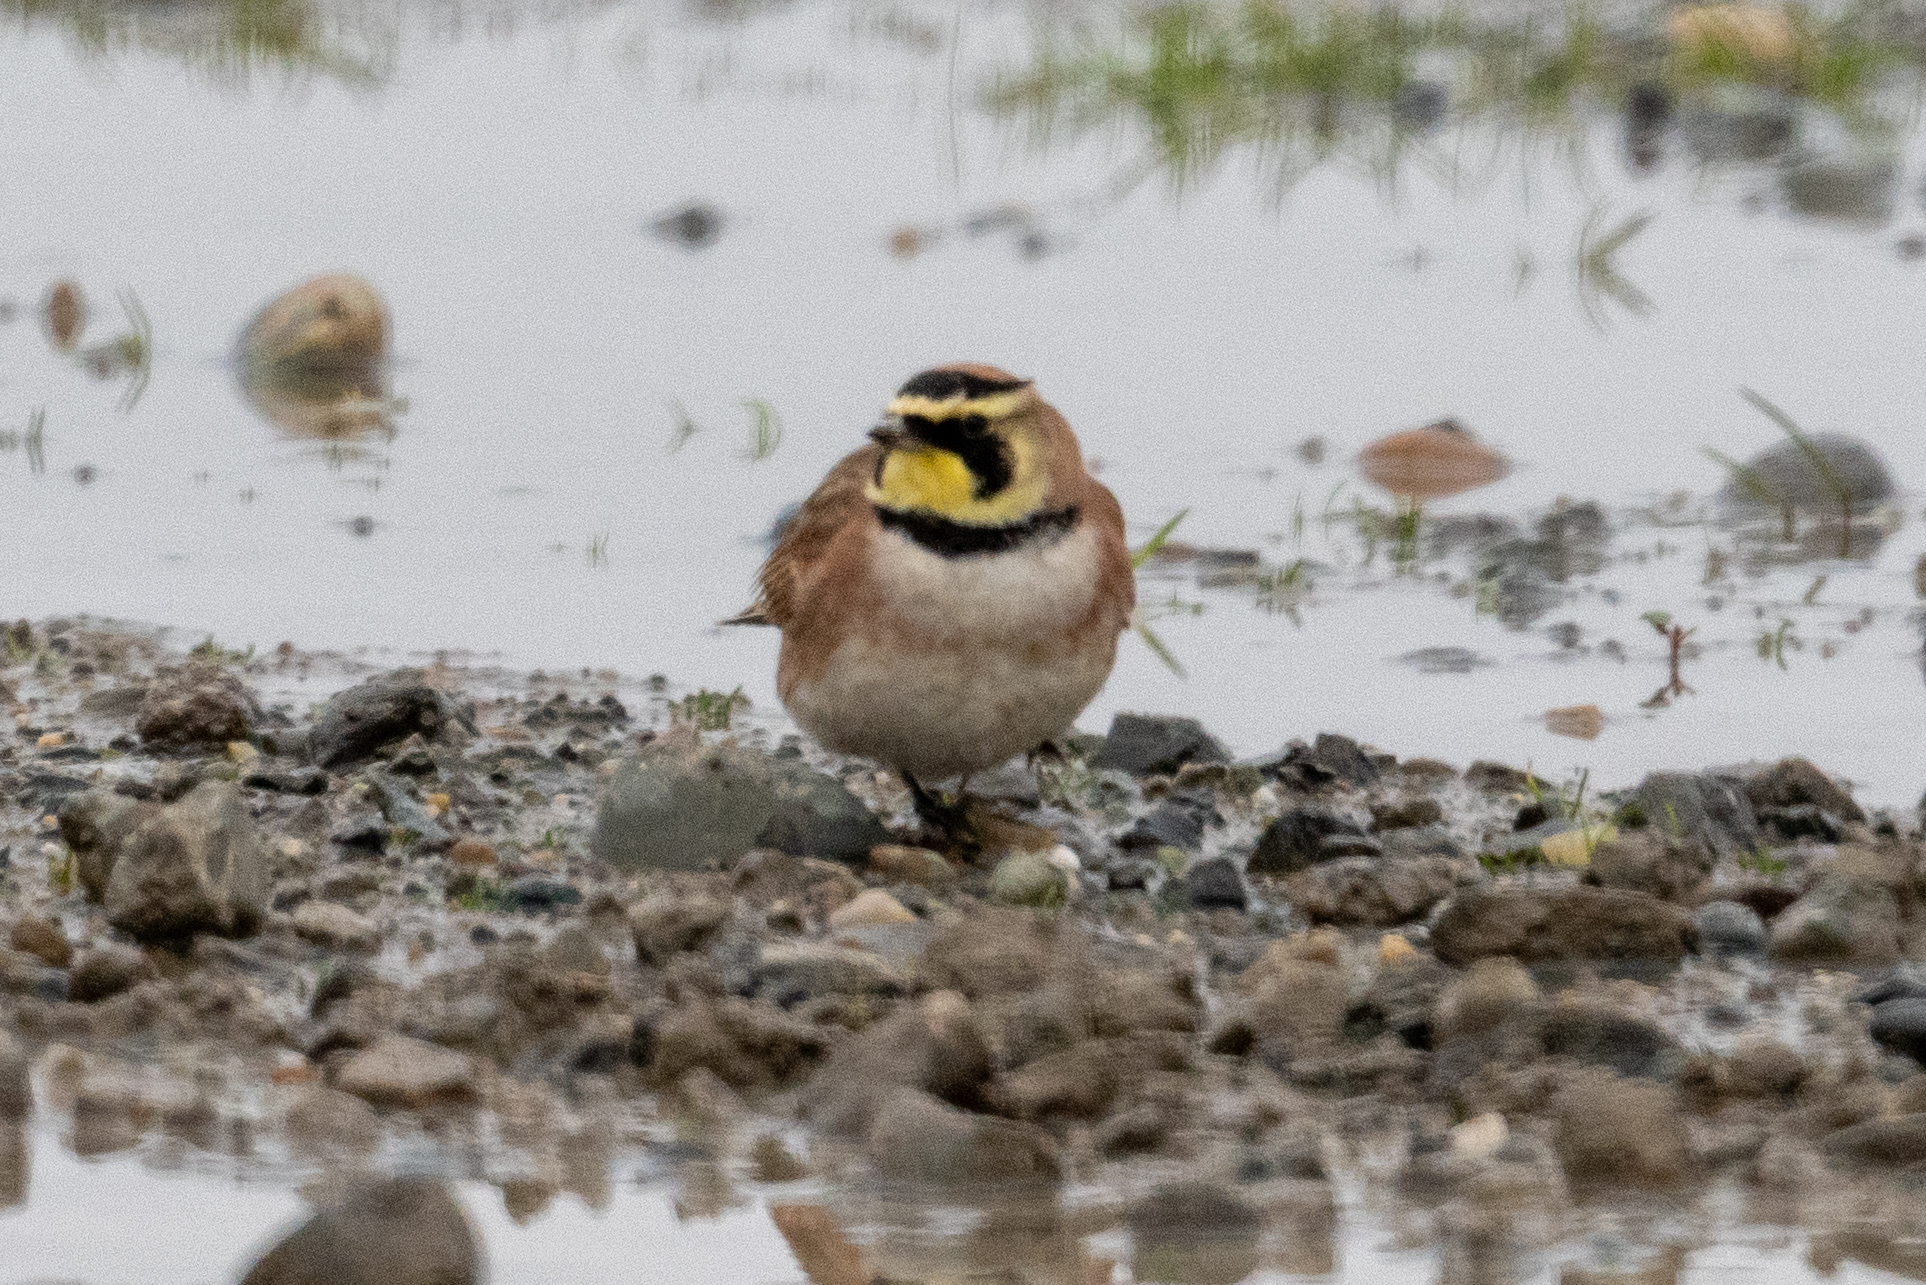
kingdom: Animalia
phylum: Chordata
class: Aves
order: Passeriformes
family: Alaudidae
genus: Eremophila
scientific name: Eremophila alpestris
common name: Horned lark
